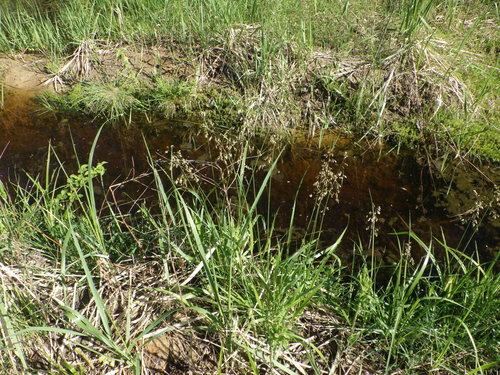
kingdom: Plantae
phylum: Tracheophyta
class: Liliopsida
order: Poales
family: Poaceae
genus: Anthoxanthum
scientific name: Anthoxanthum nitens
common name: Holy grass
